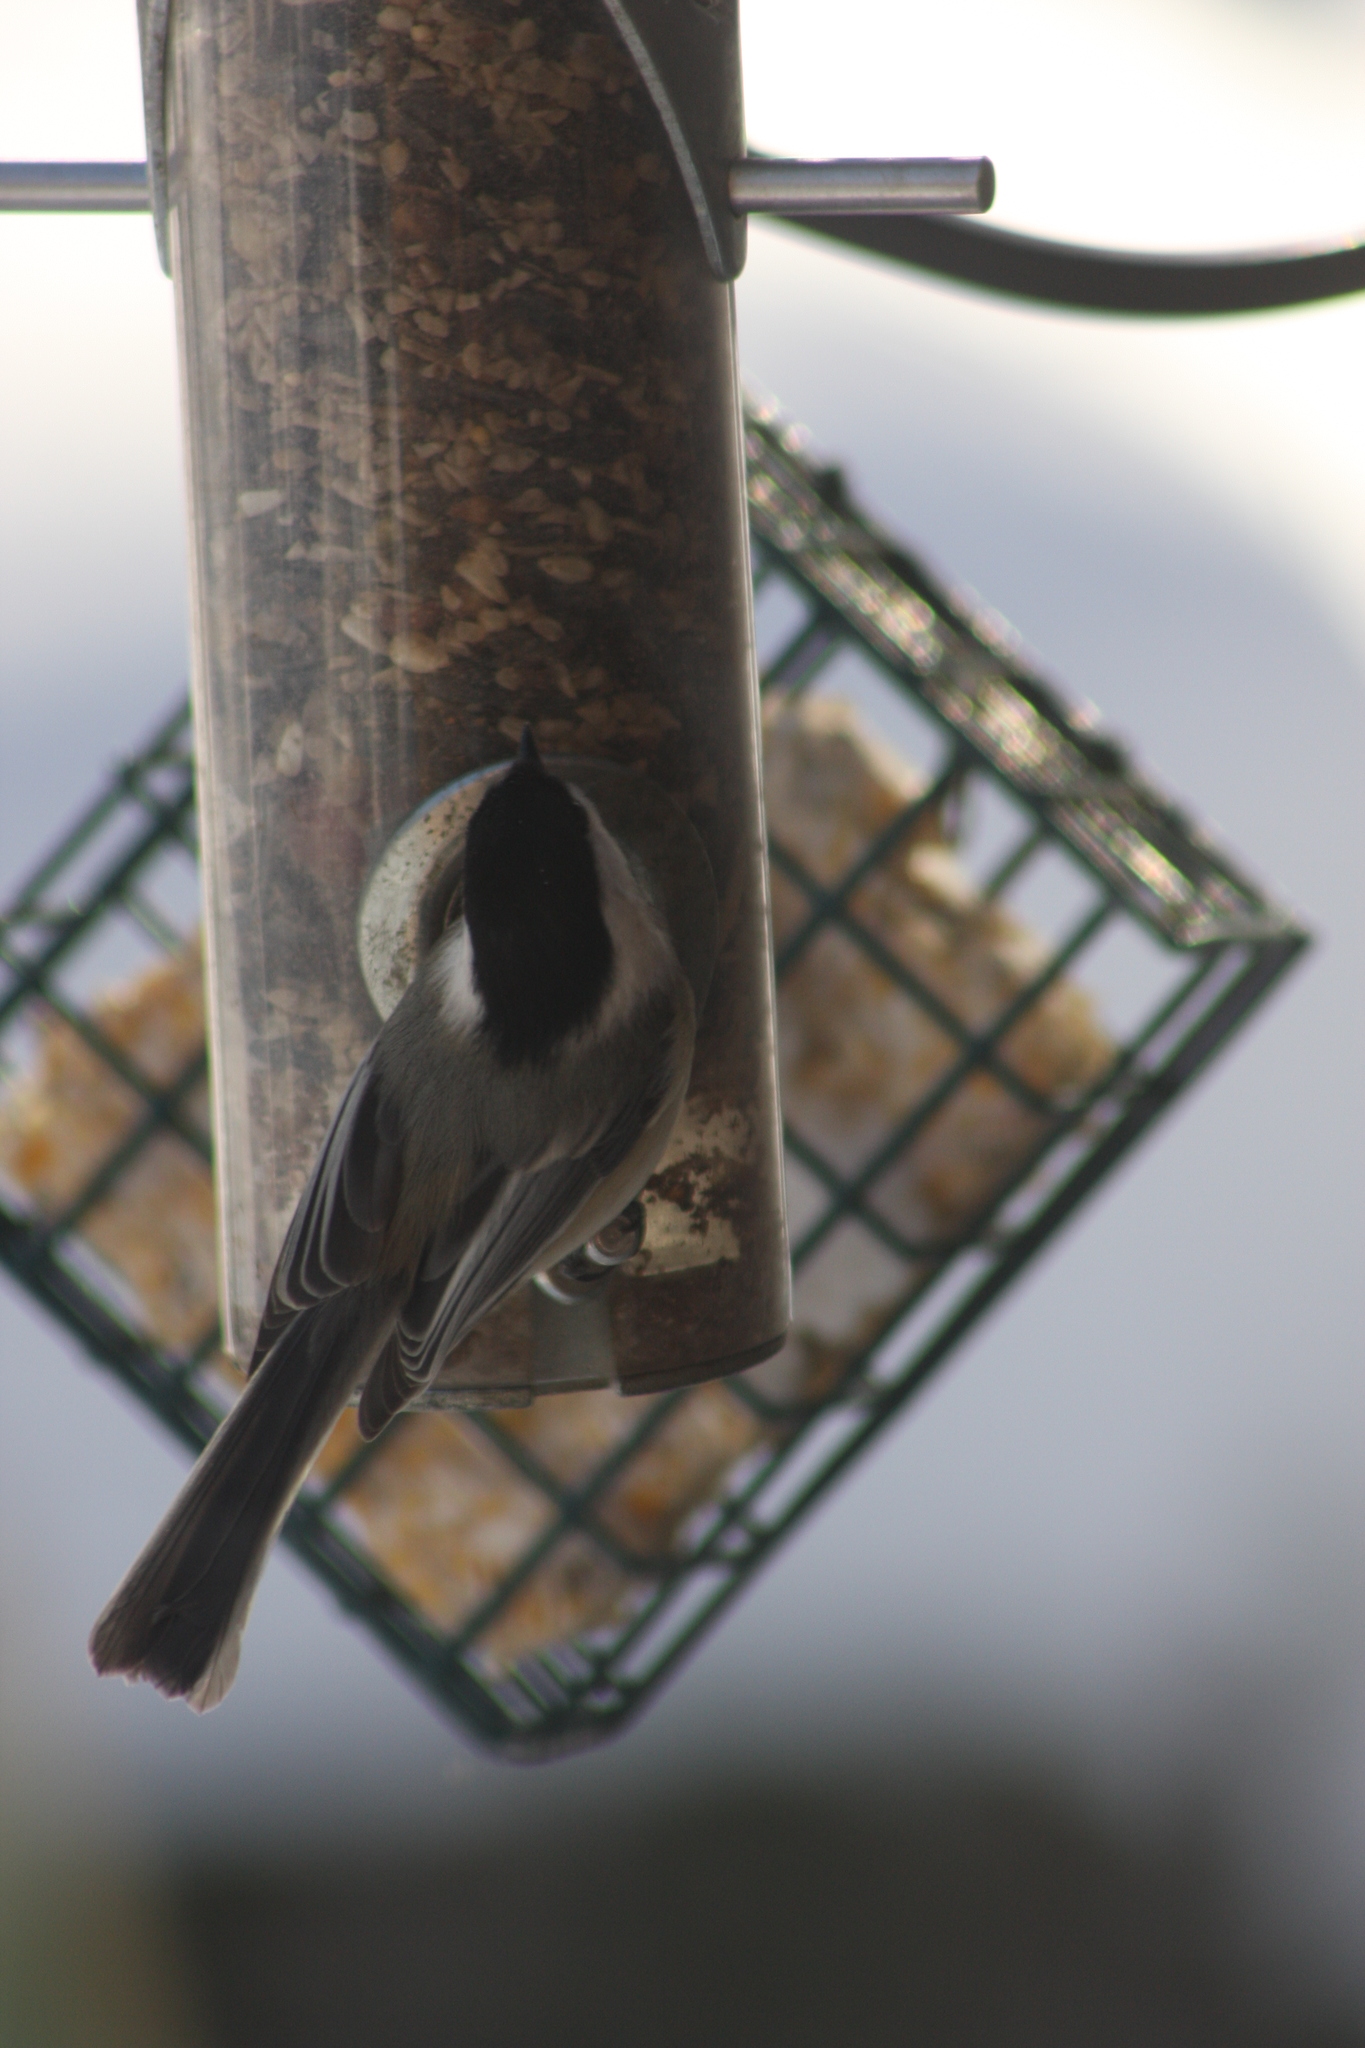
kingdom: Animalia
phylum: Chordata
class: Aves
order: Passeriformes
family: Paridae
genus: Poecile
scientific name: Poecile atricapillus
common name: Black-capped chickadee
